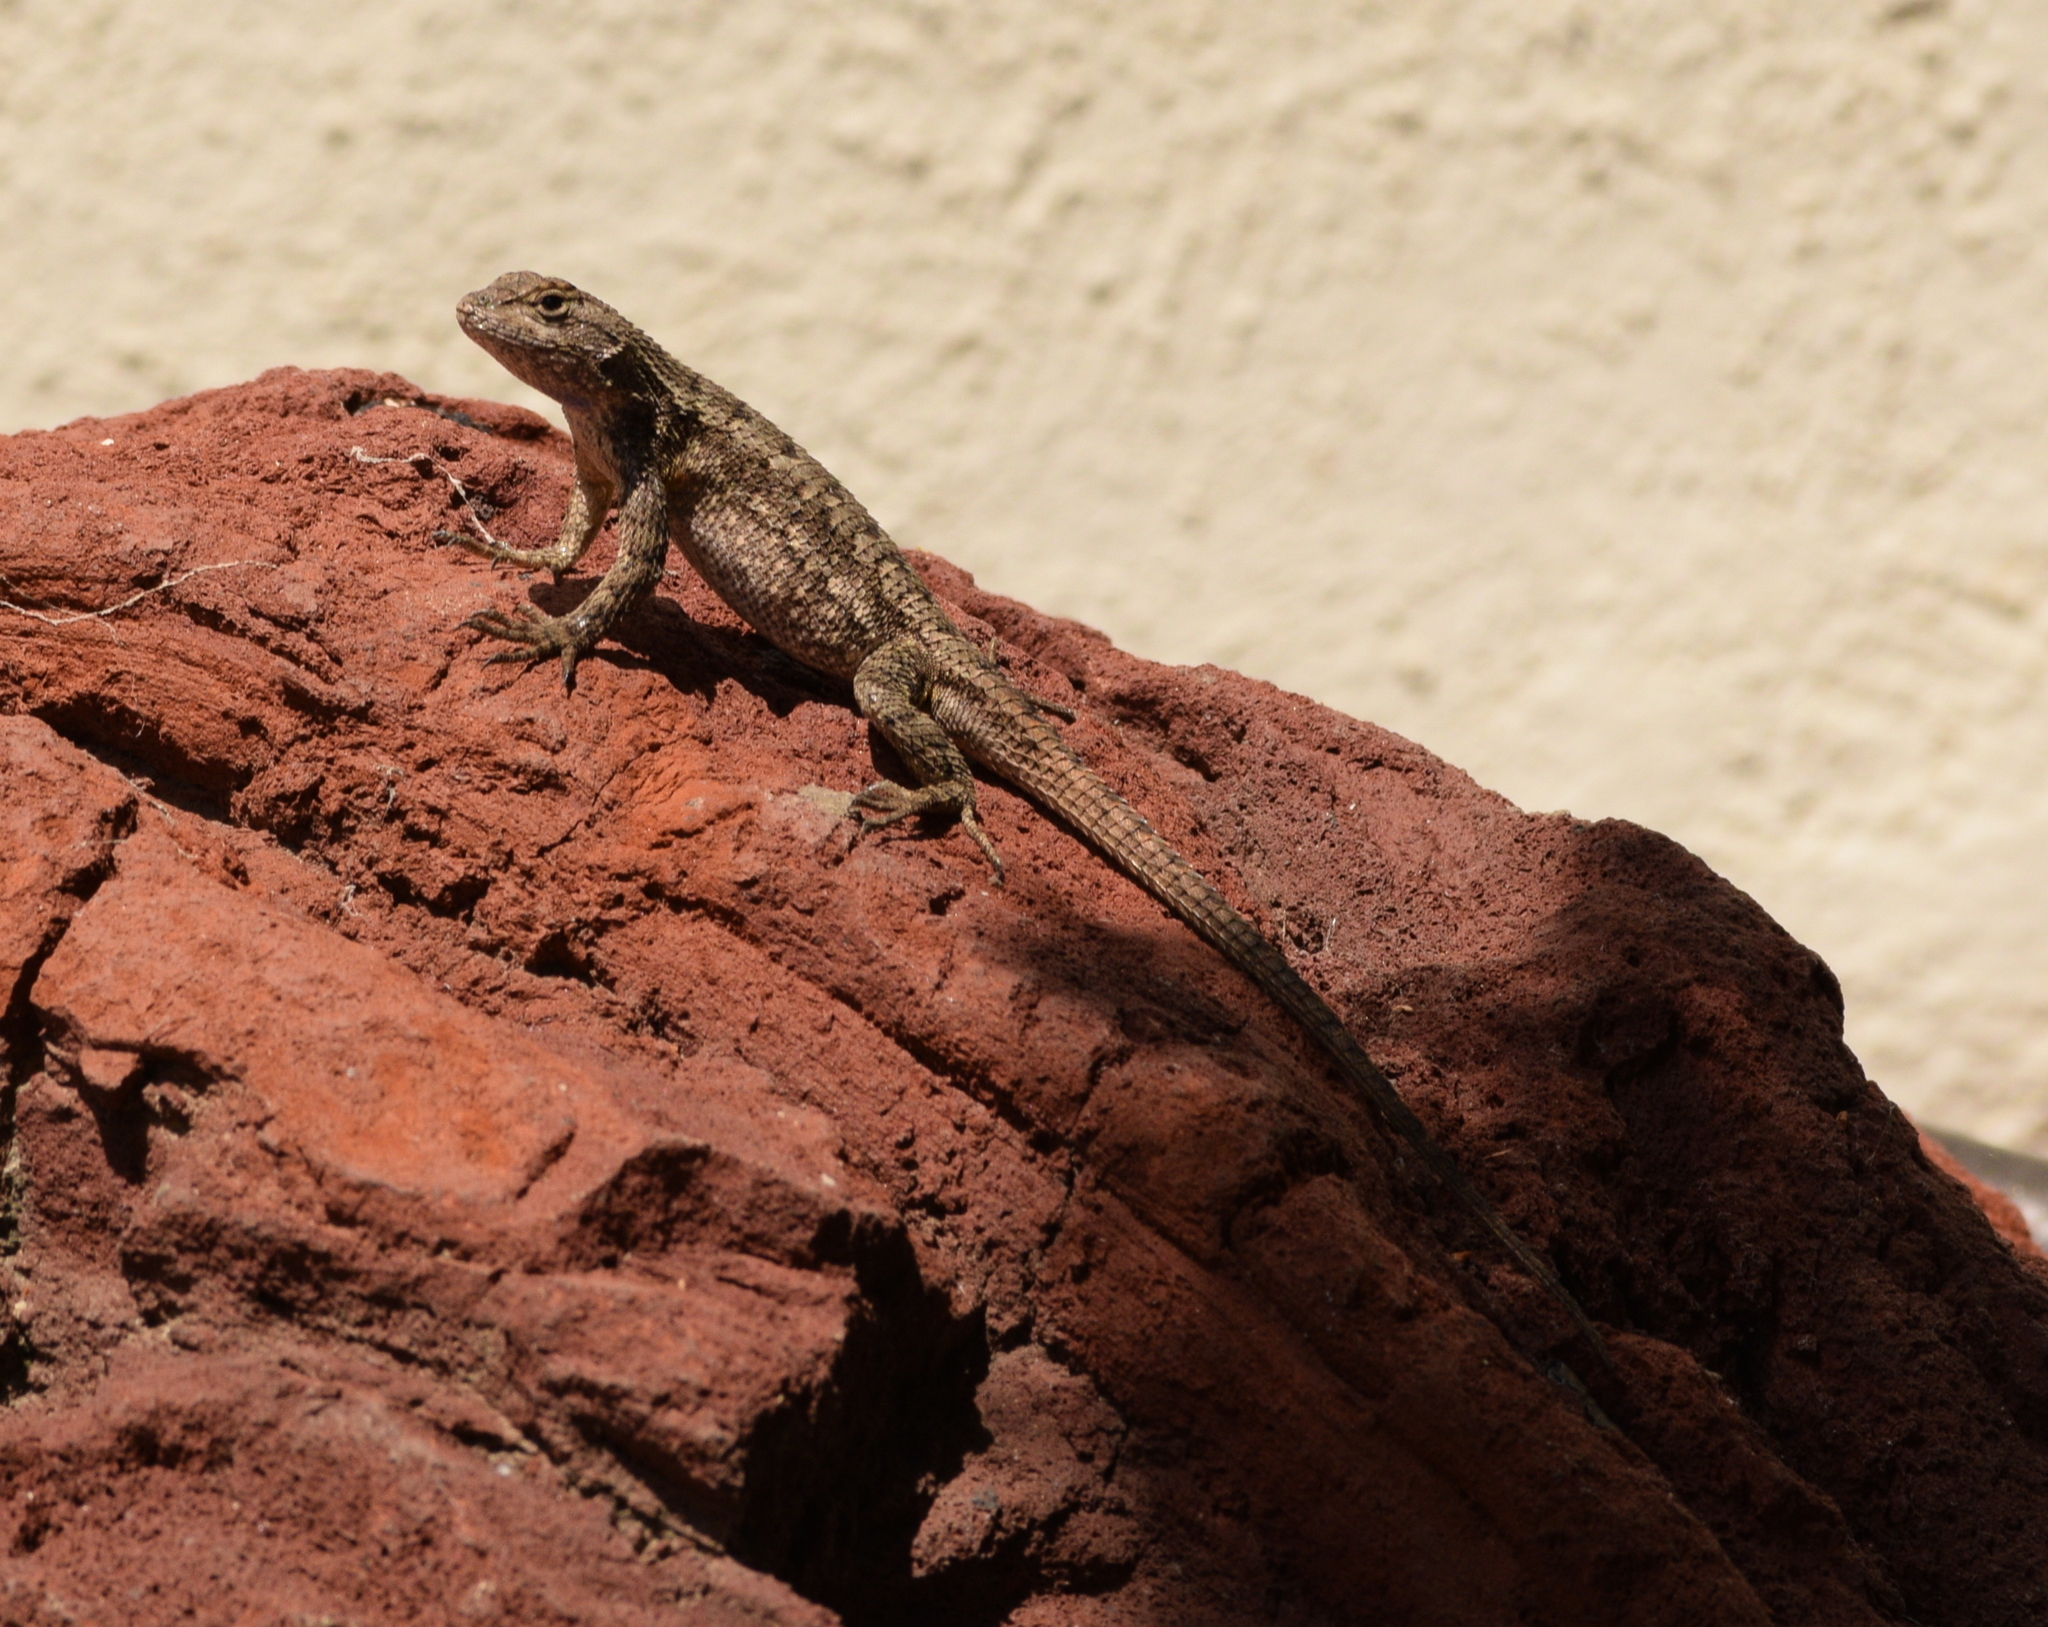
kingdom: Animalia
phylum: Chordata
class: Squamata
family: Phrynosomatidae
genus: Sceloporus
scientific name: Sceloporus occidentalis
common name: Western fence lizard
